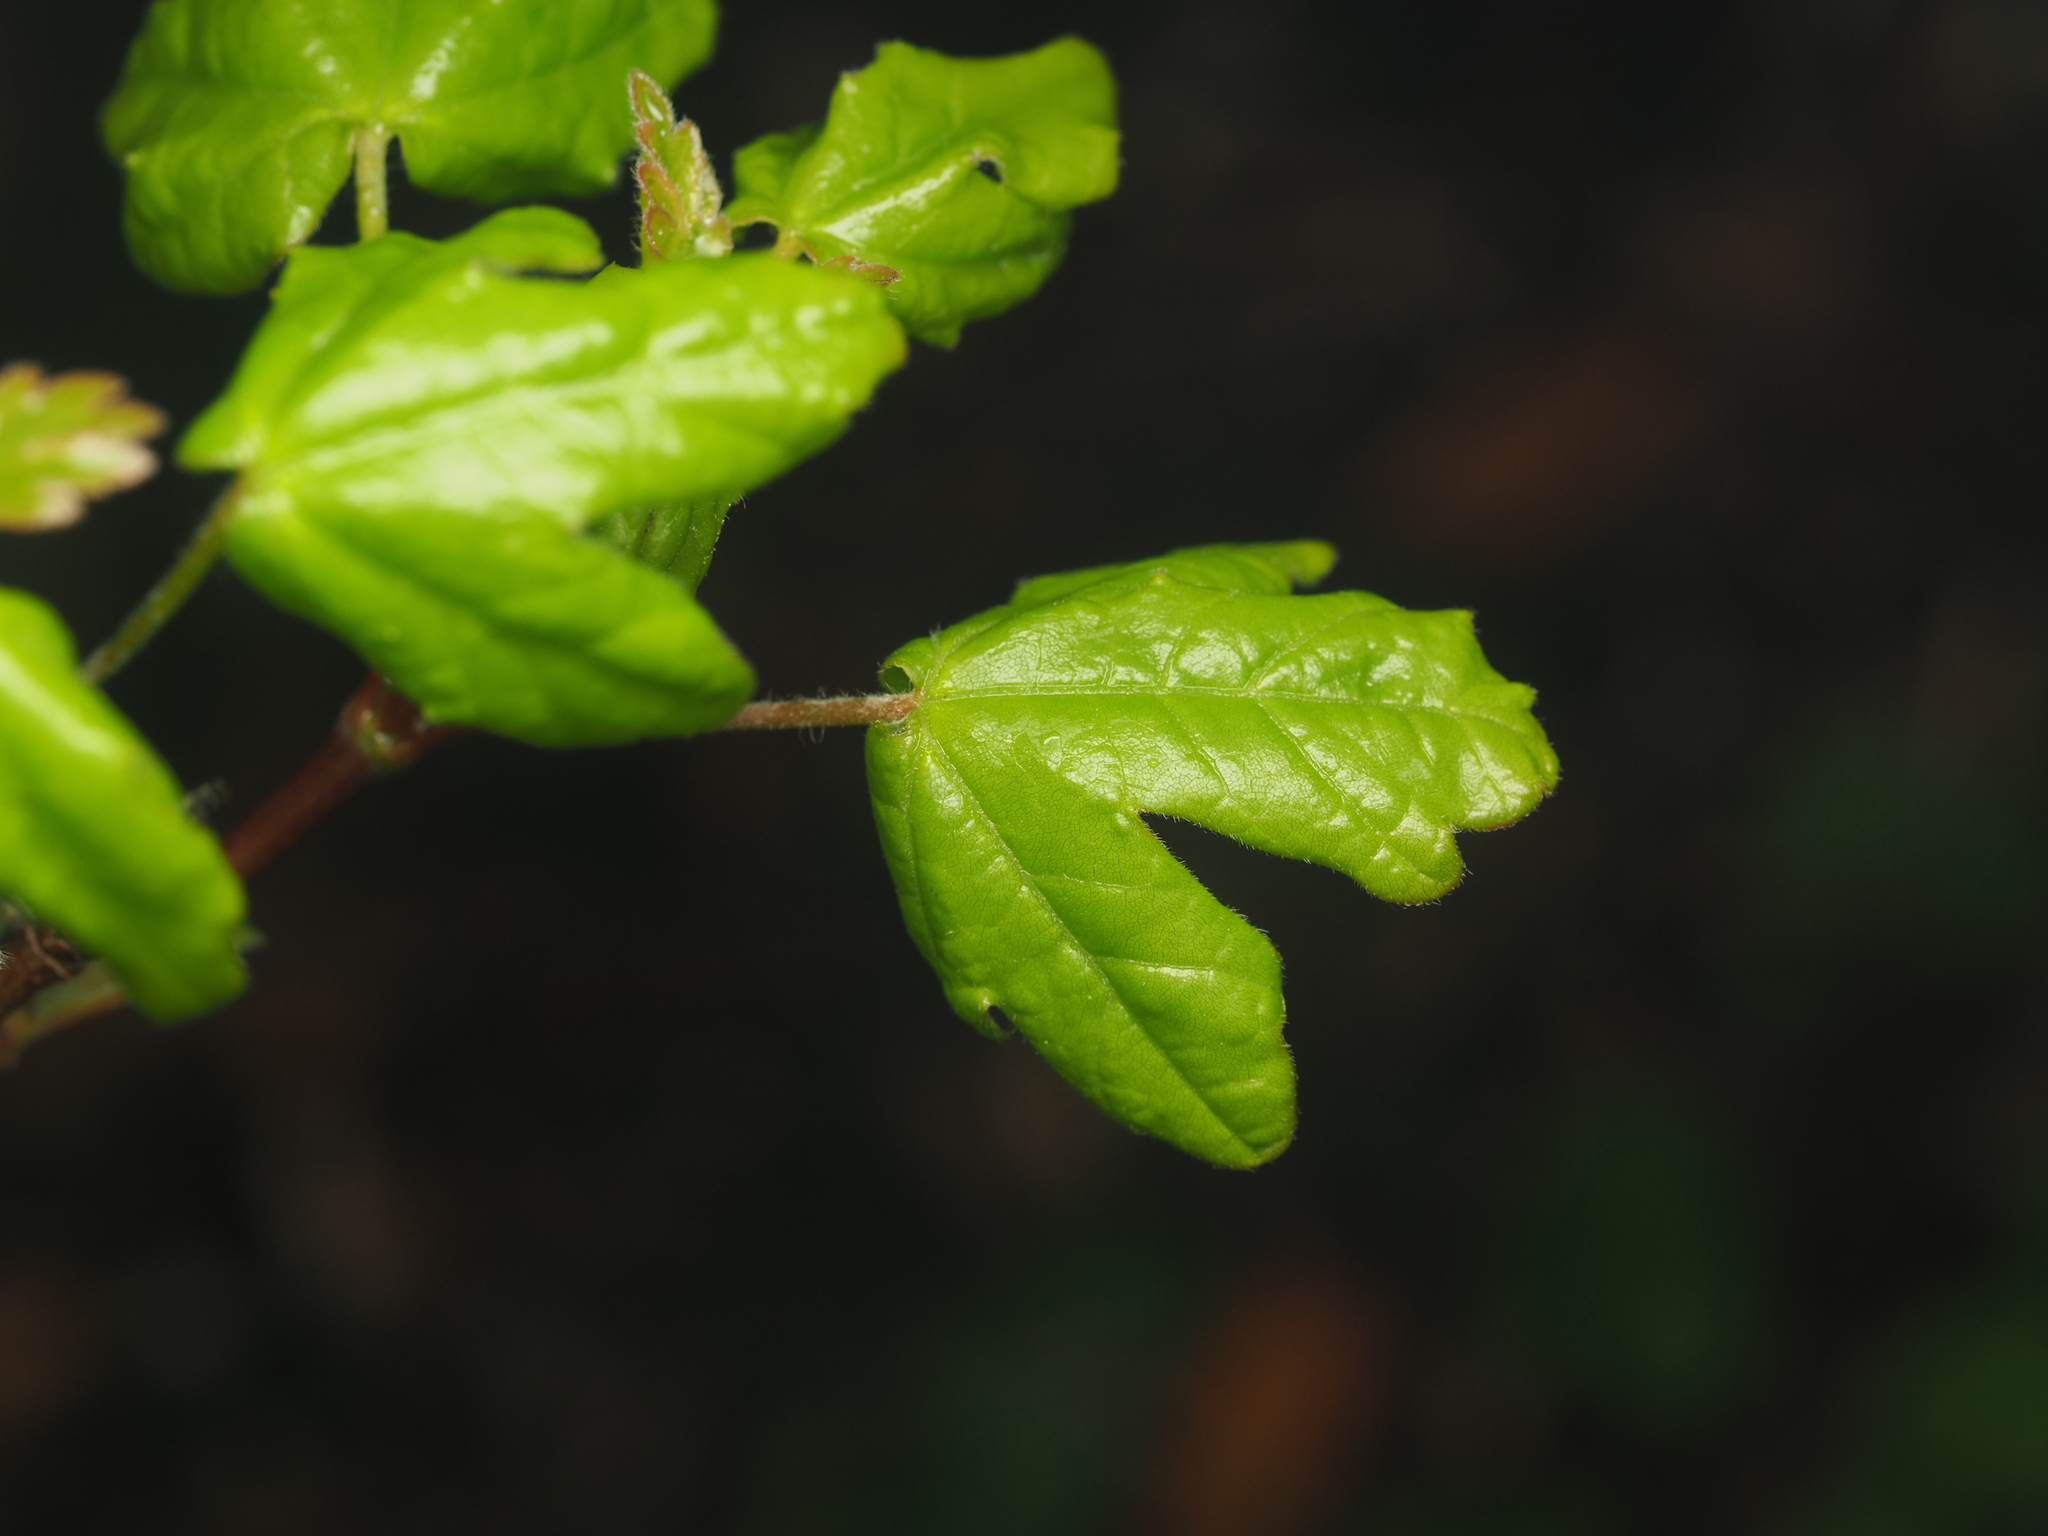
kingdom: Plantae
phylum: Tracheophyta
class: Magnoliopsida
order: Sapindales
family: Sapindaceae
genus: Acer
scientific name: Acer campestre
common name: Field maple
